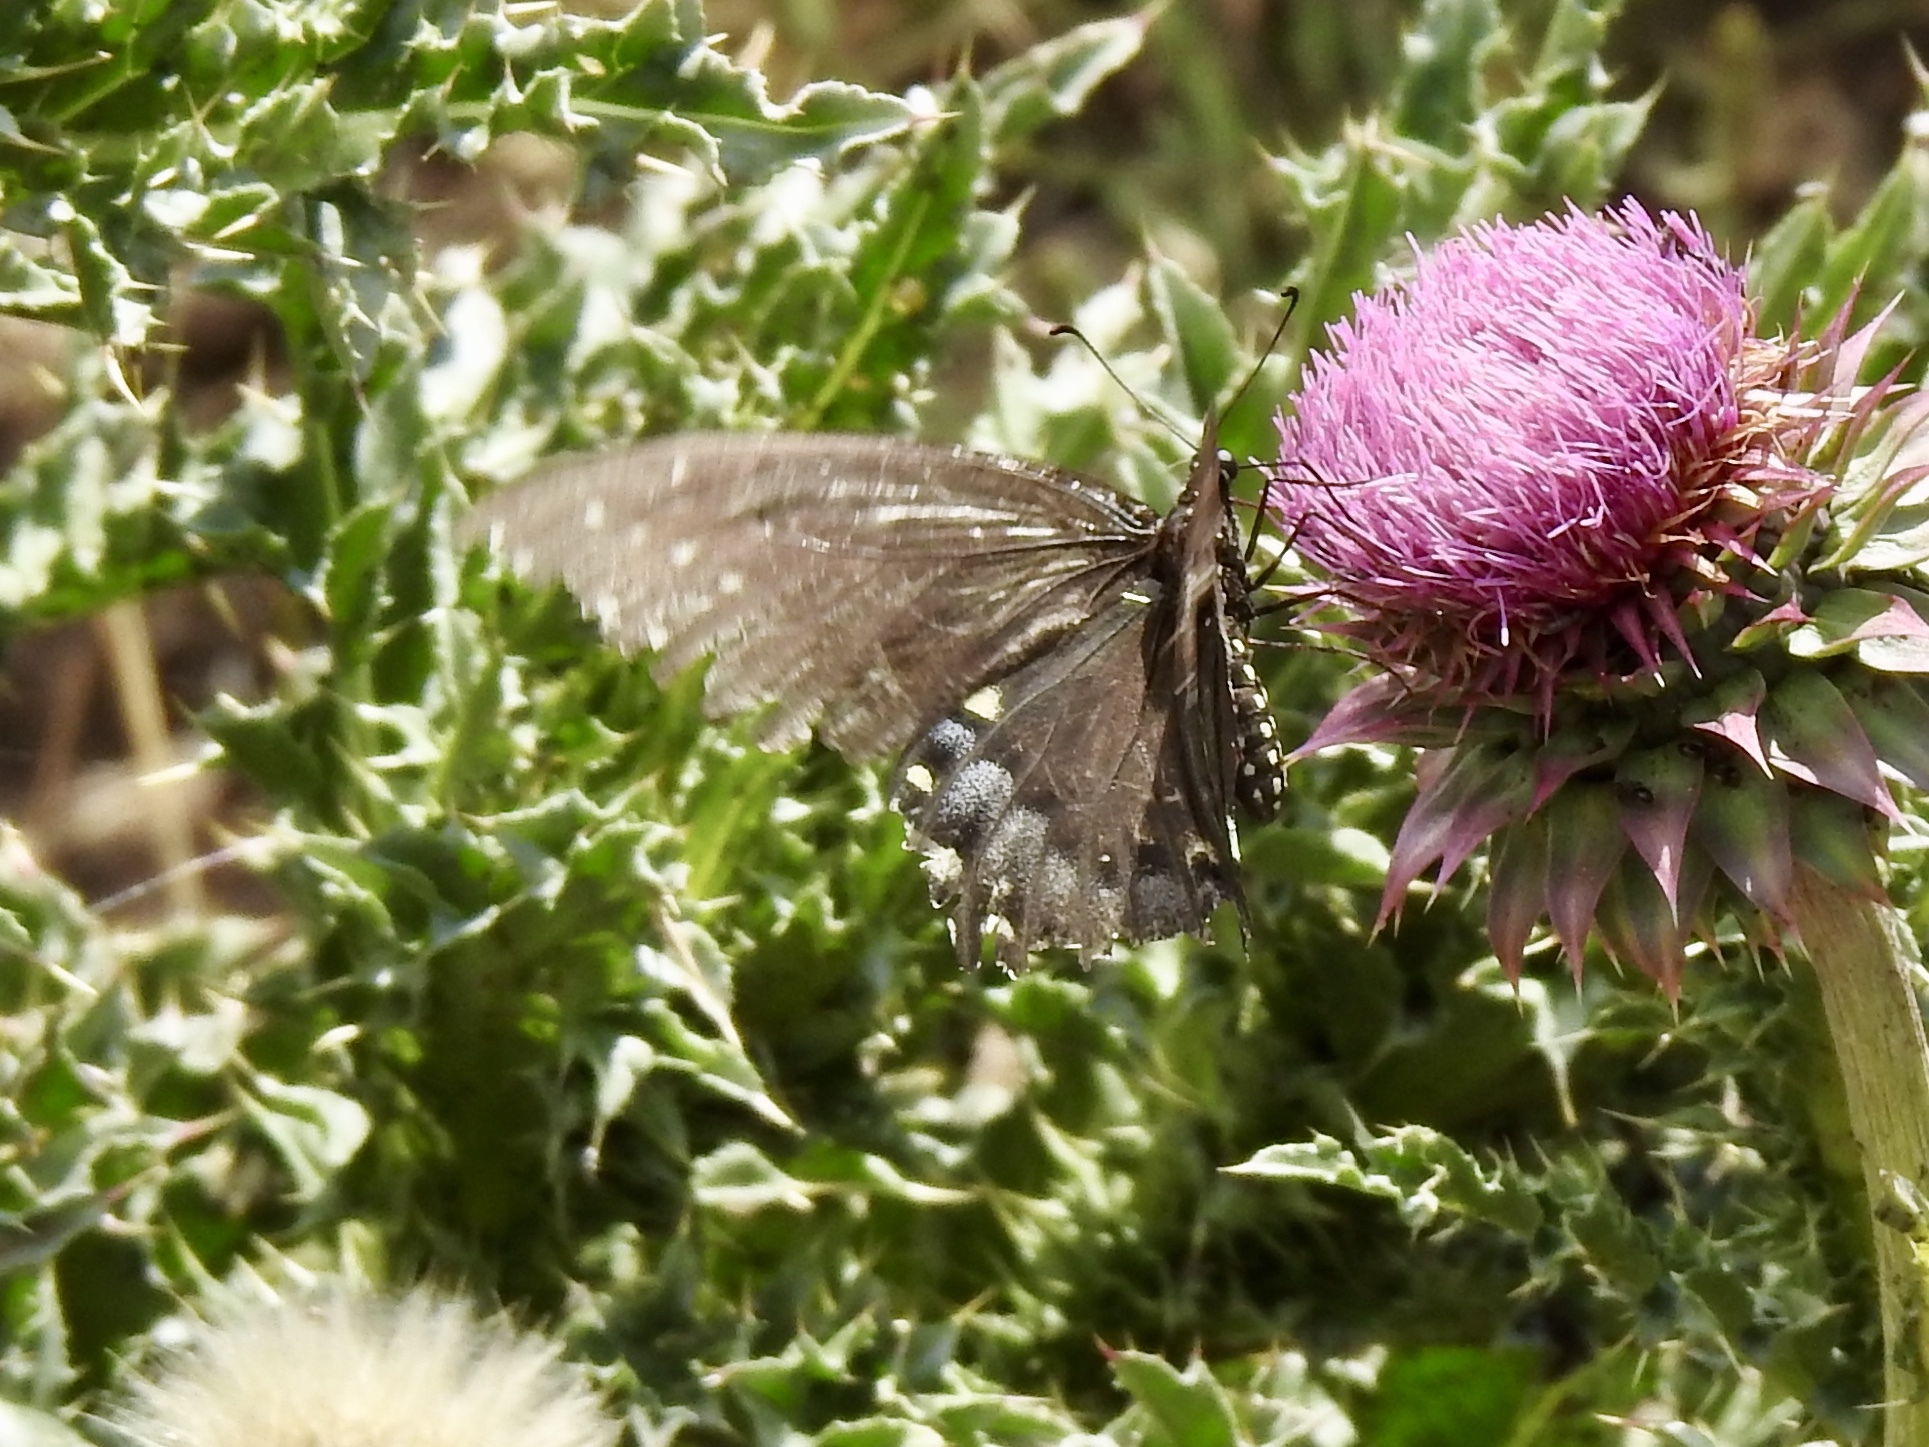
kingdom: Animalia
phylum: Arthropoda
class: Insecta
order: Lepidoptera
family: Papilionidae
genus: Papilio
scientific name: Papilio polyxenes
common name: Black swallowtail
